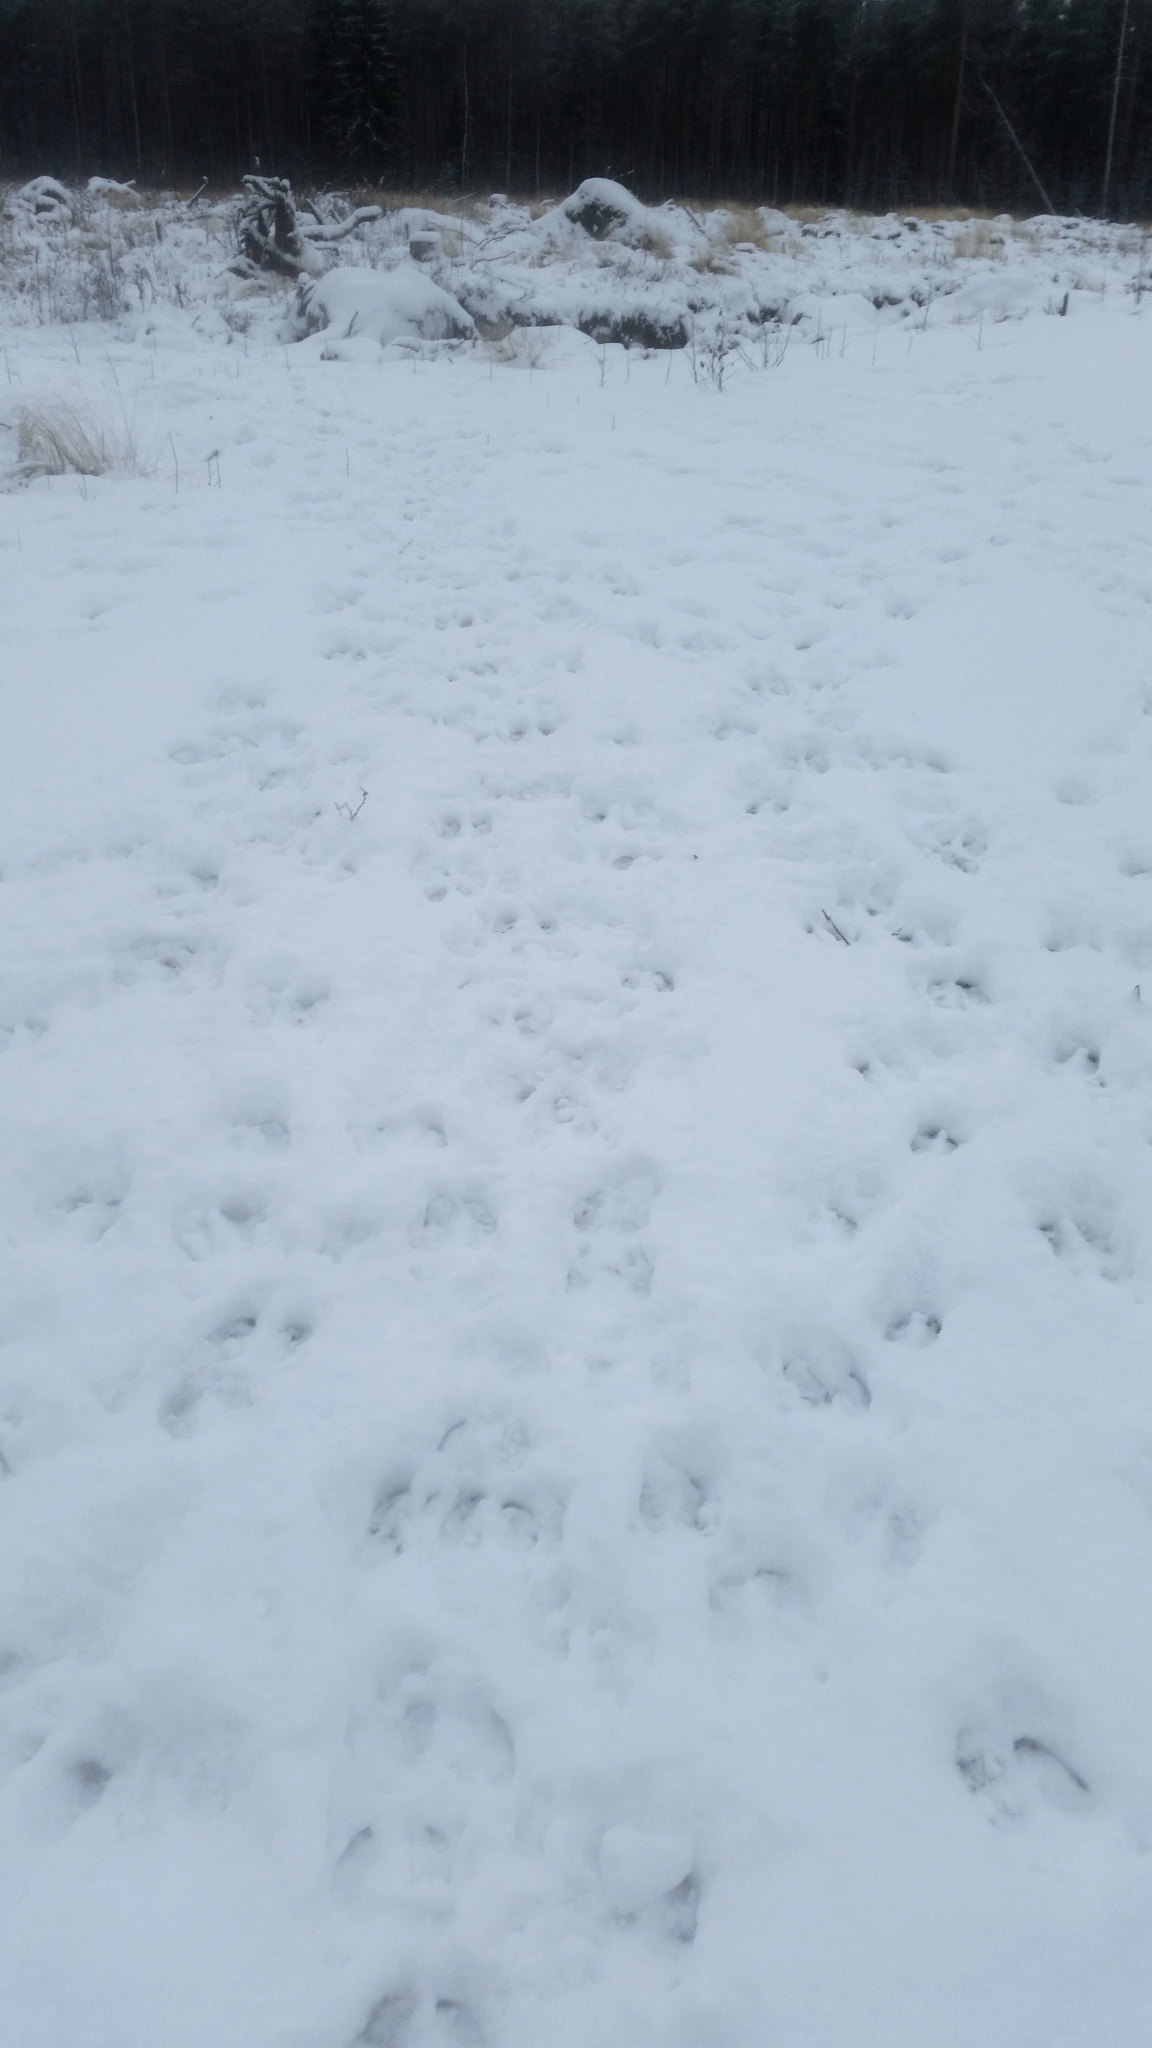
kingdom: Animalia
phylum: Chordata
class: Mammalia
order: Artiodactyla
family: Cervidae
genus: Rangifer
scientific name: Rangifer tarandus
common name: Reindeer
